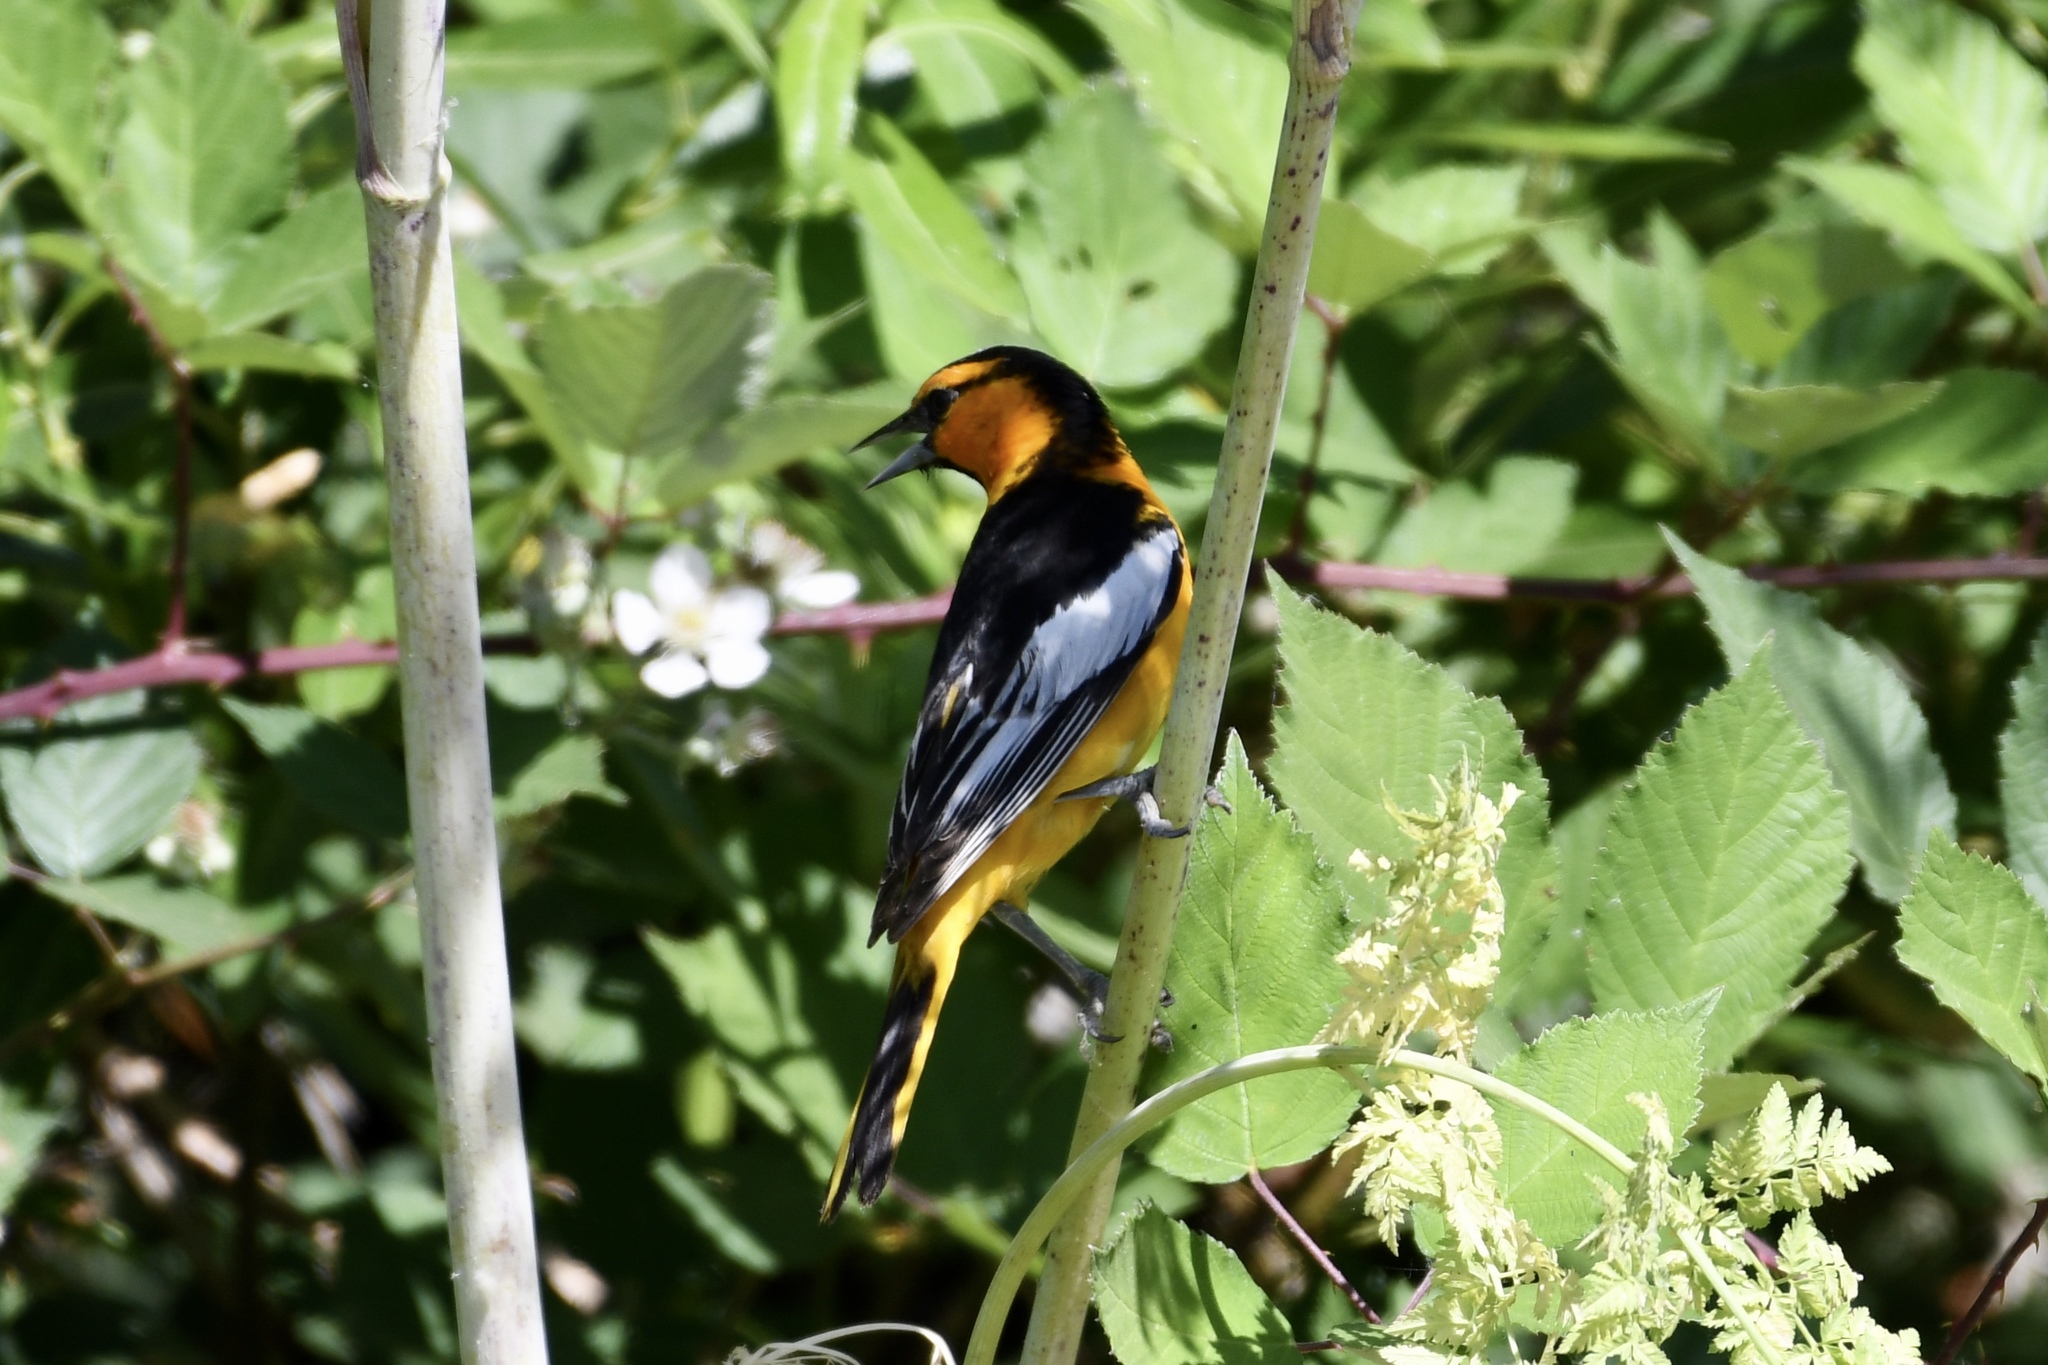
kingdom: Animalia
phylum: Chordata
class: Aves
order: Passeriformes
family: Icteridae
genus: Icterus
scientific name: Icterus bullockii
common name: Bullock's oriole
